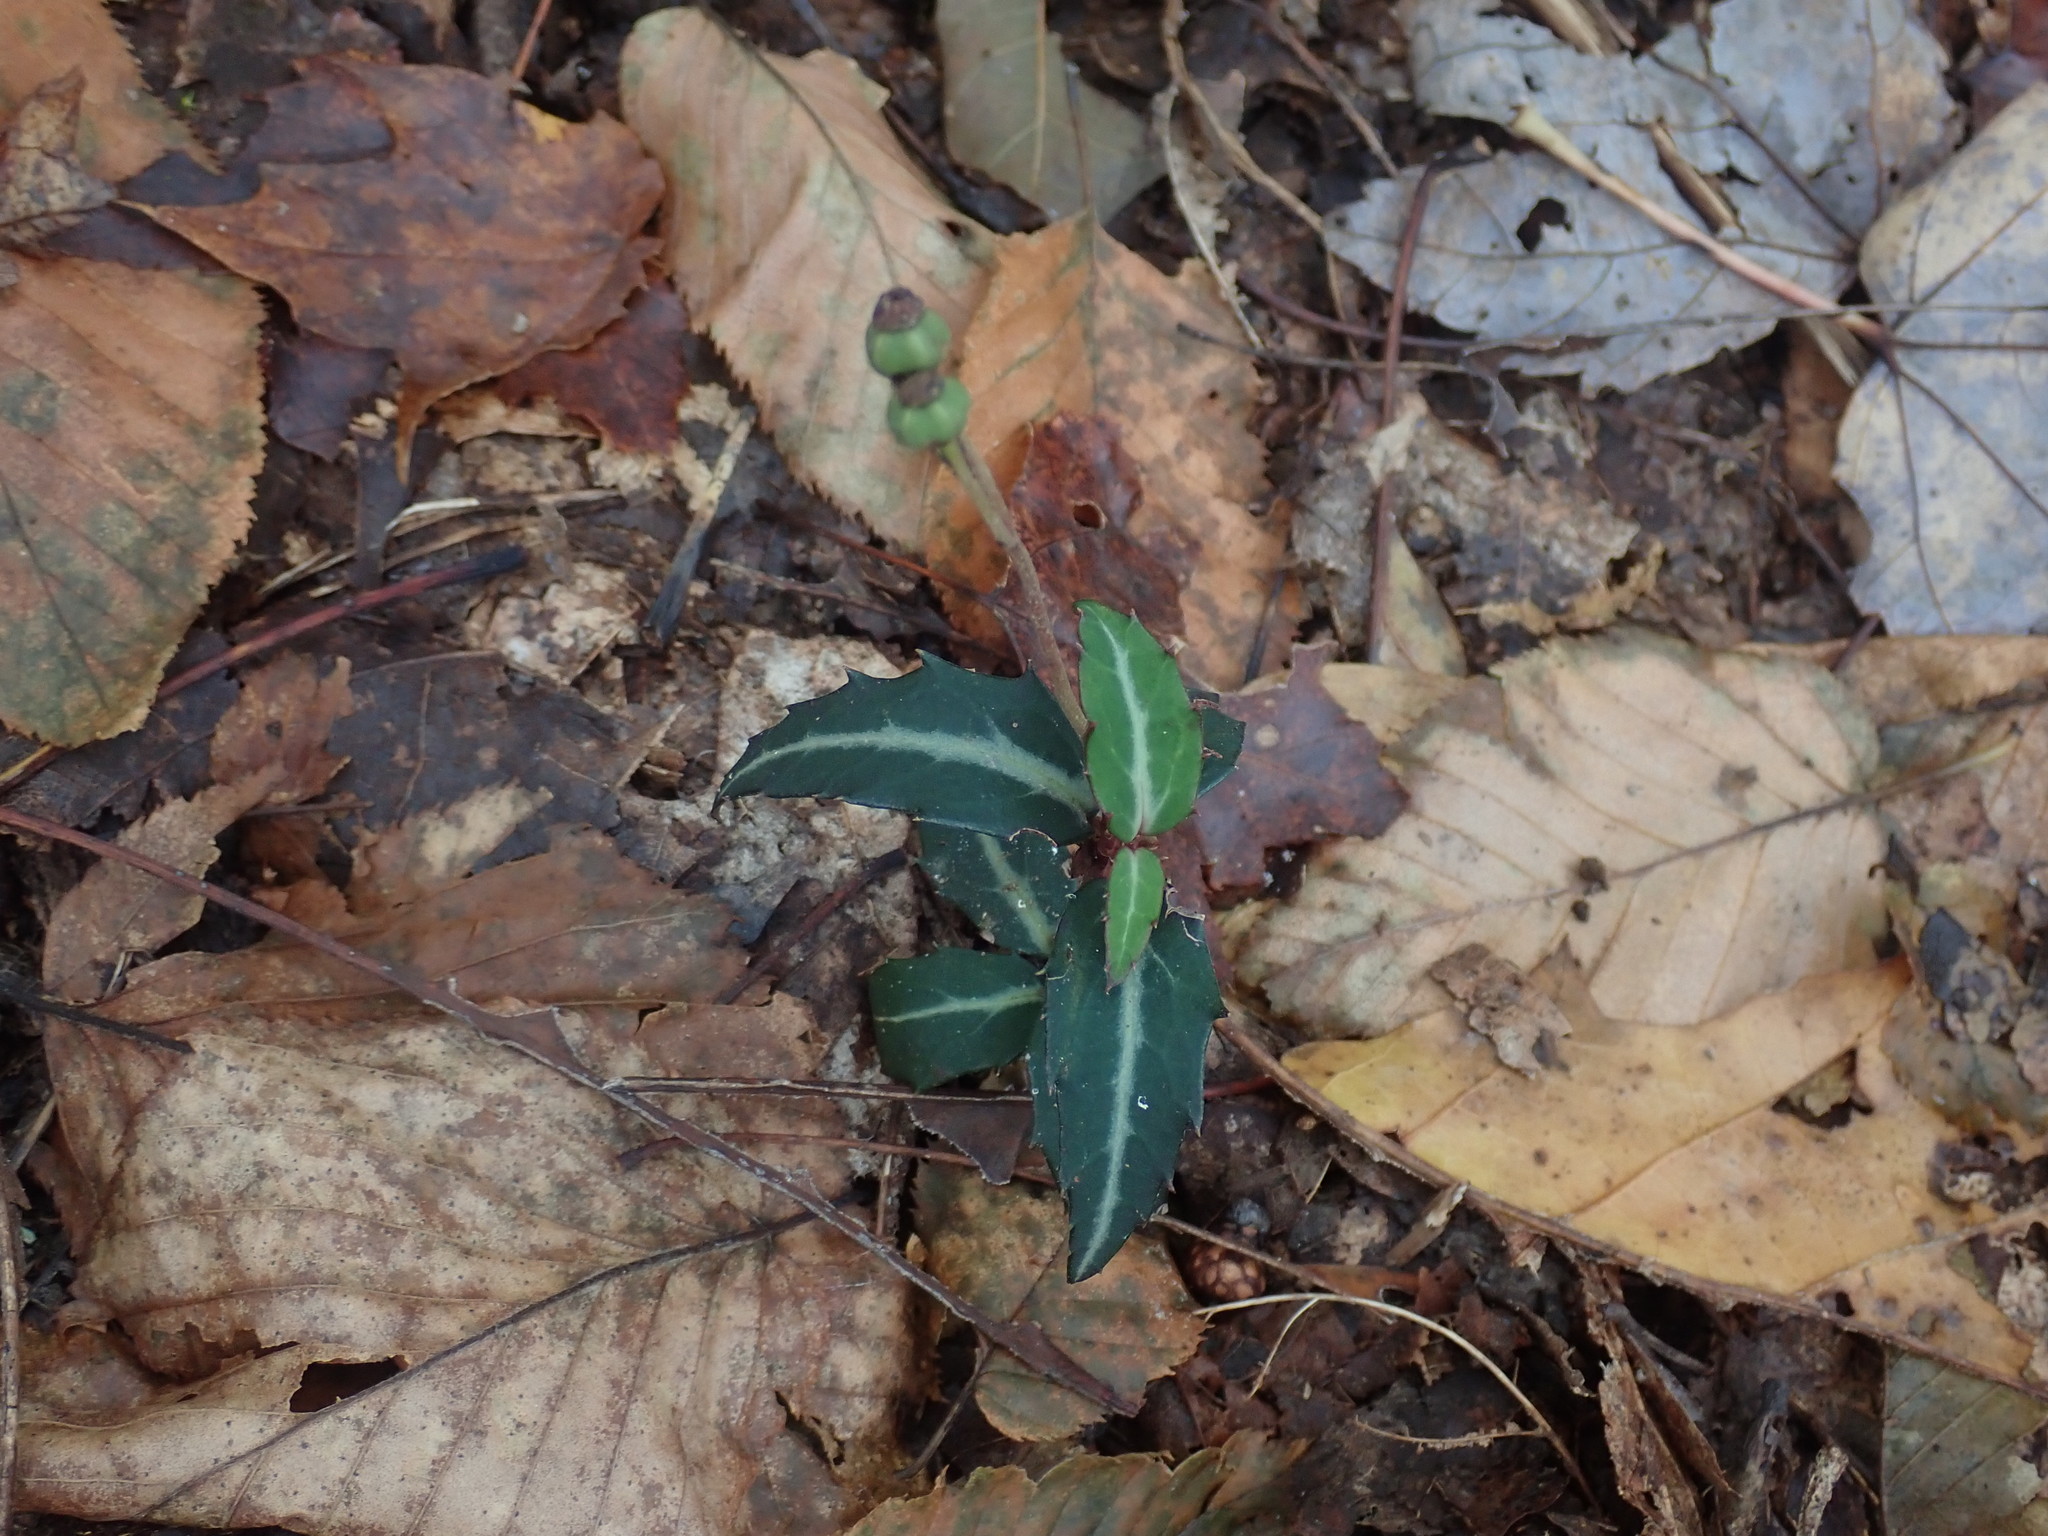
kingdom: Plantae
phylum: Tracheophyta
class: Magnoliopsida
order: Ericales
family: Ericaceae
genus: Chimaphila
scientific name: Chimaphila maculata
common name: Spotted pipsissewa
